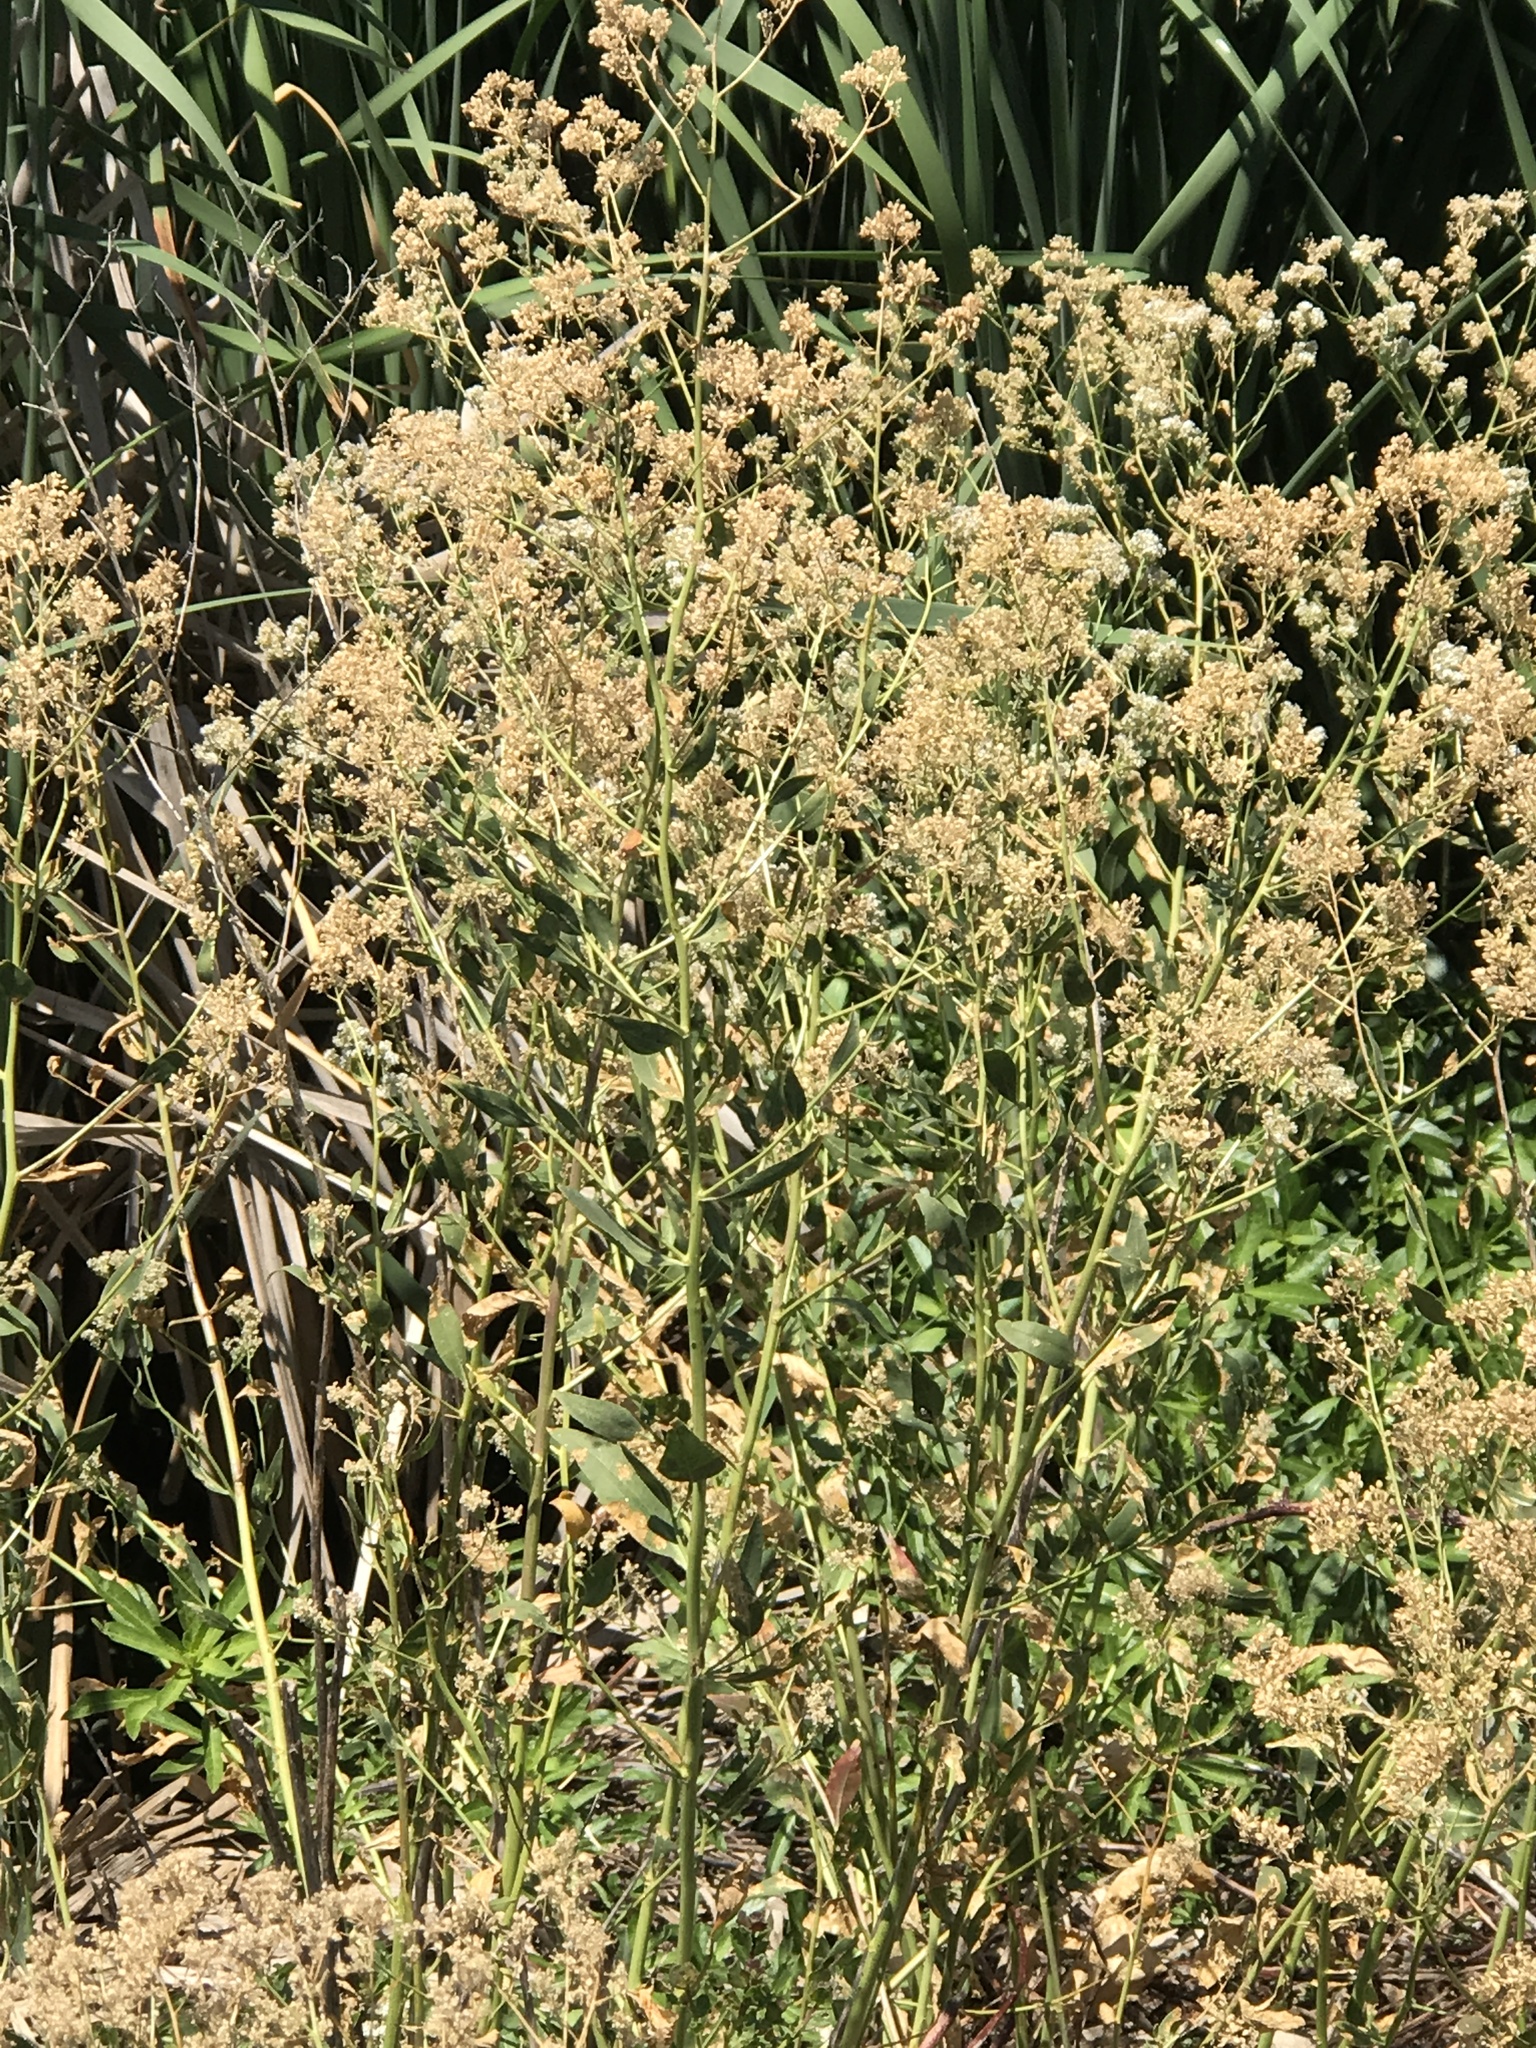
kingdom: Plantae
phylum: Tracheophyta
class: Magnoliopsida
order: Brassicales
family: Brassicaceae
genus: Lepidium
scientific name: Lepidium latifolium
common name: Dittander
